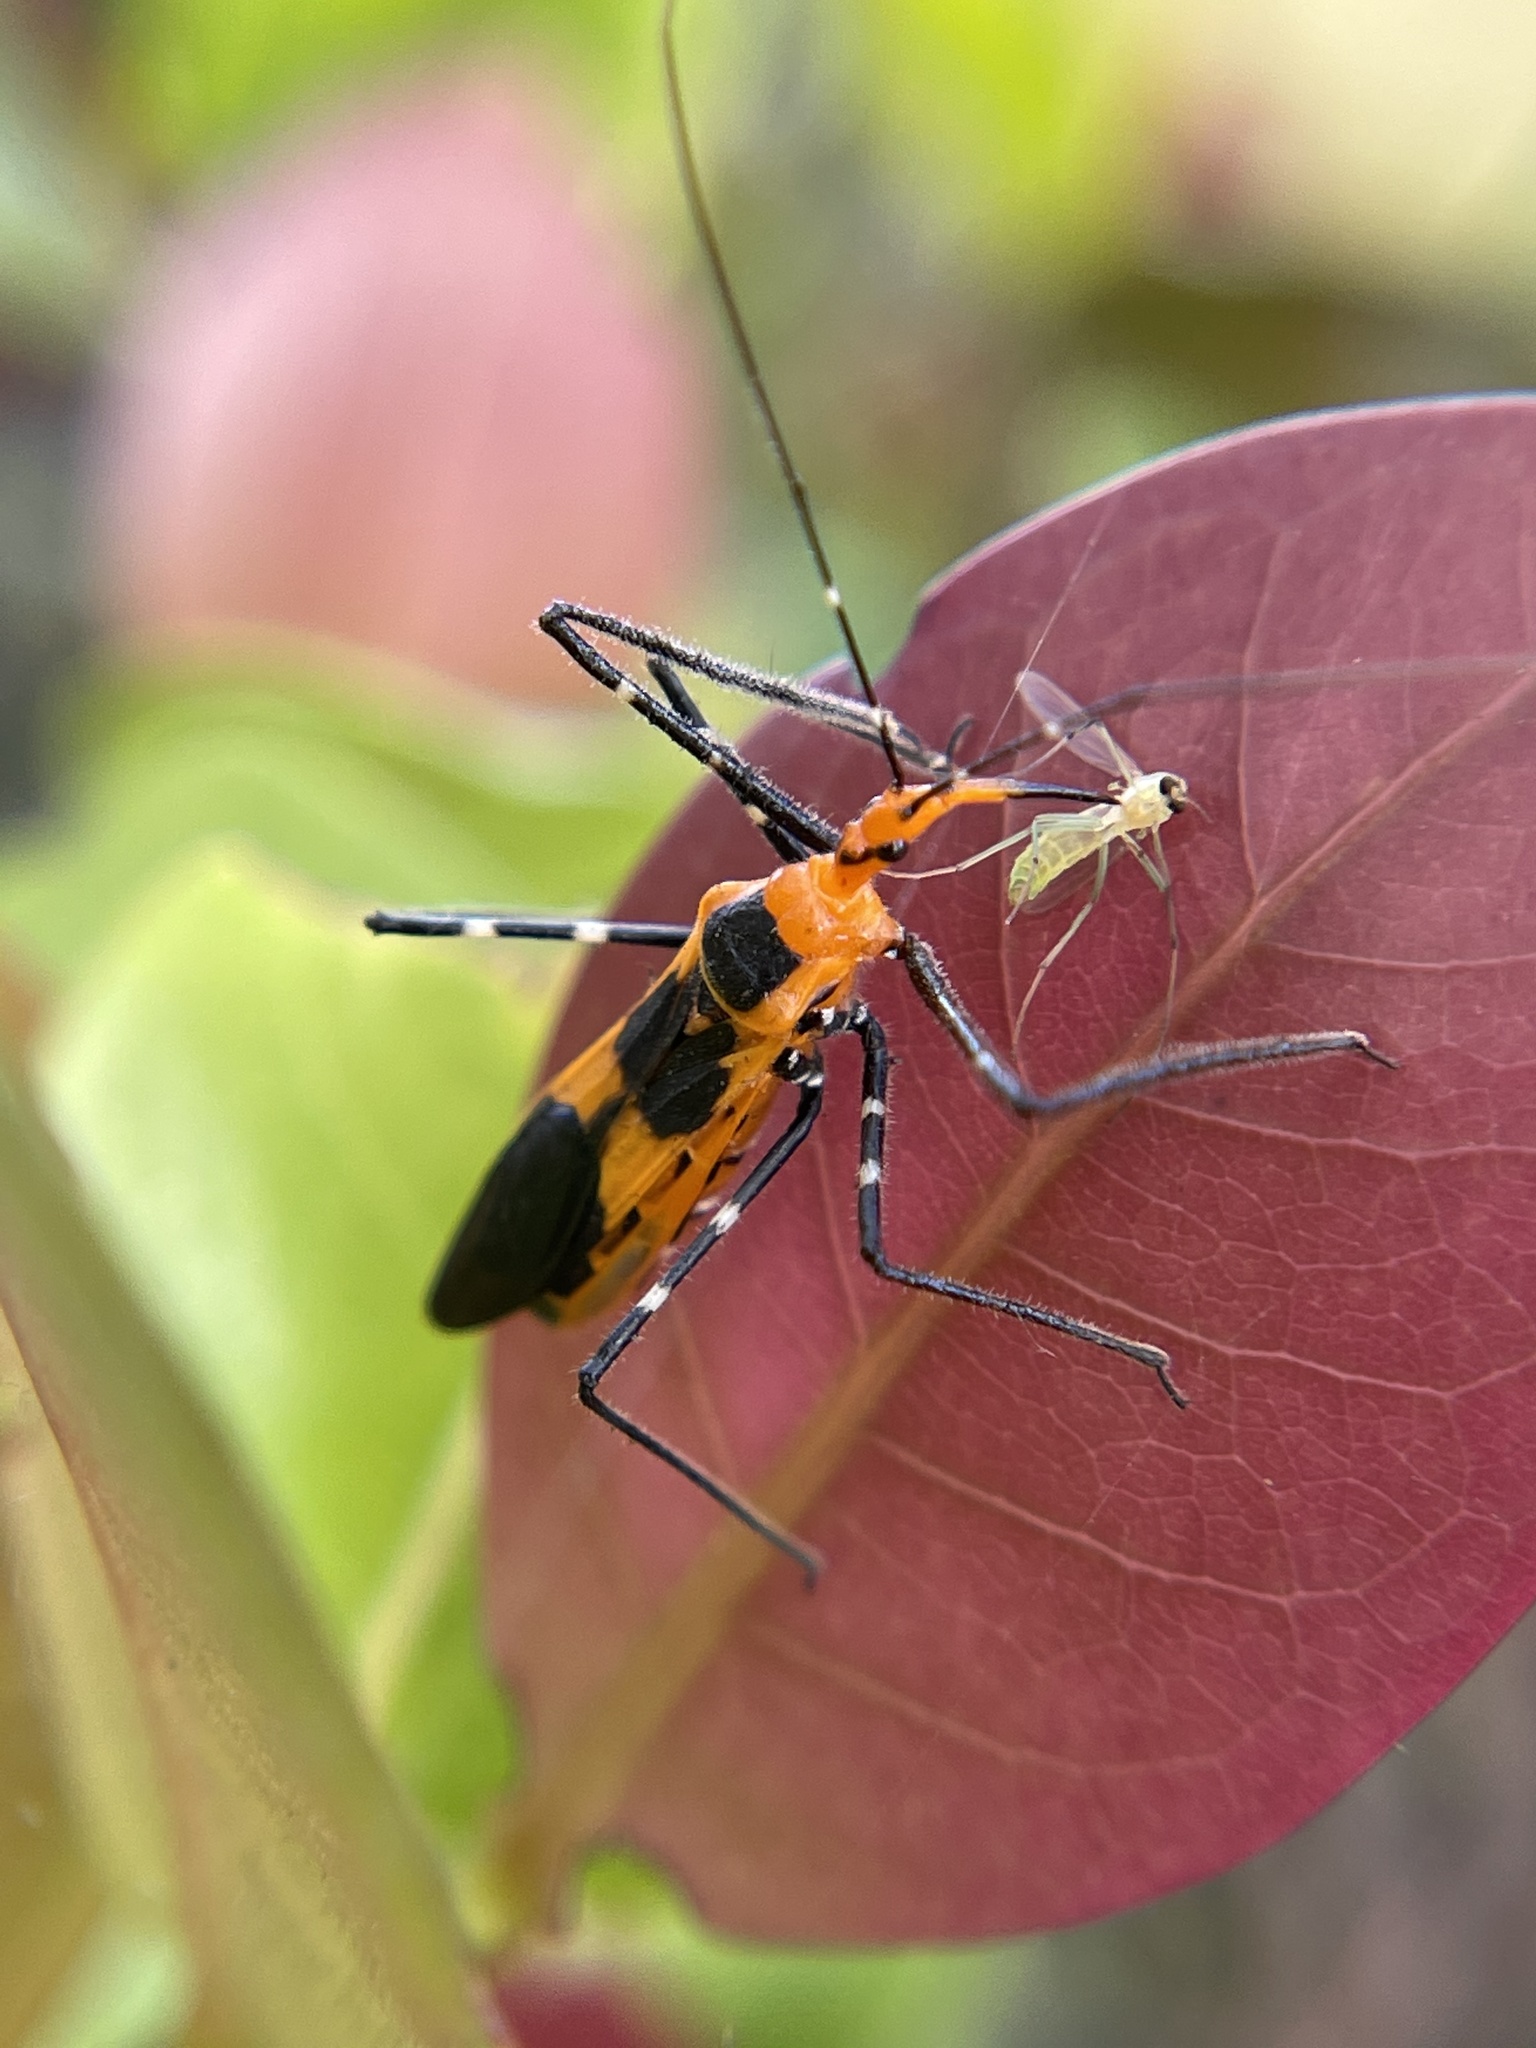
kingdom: Animalia
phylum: Arthropoda
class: Insecta
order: Hemiptera
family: Reduviidae
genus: Zelus
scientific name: Zelus longipes
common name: Milkweed assassin bug
